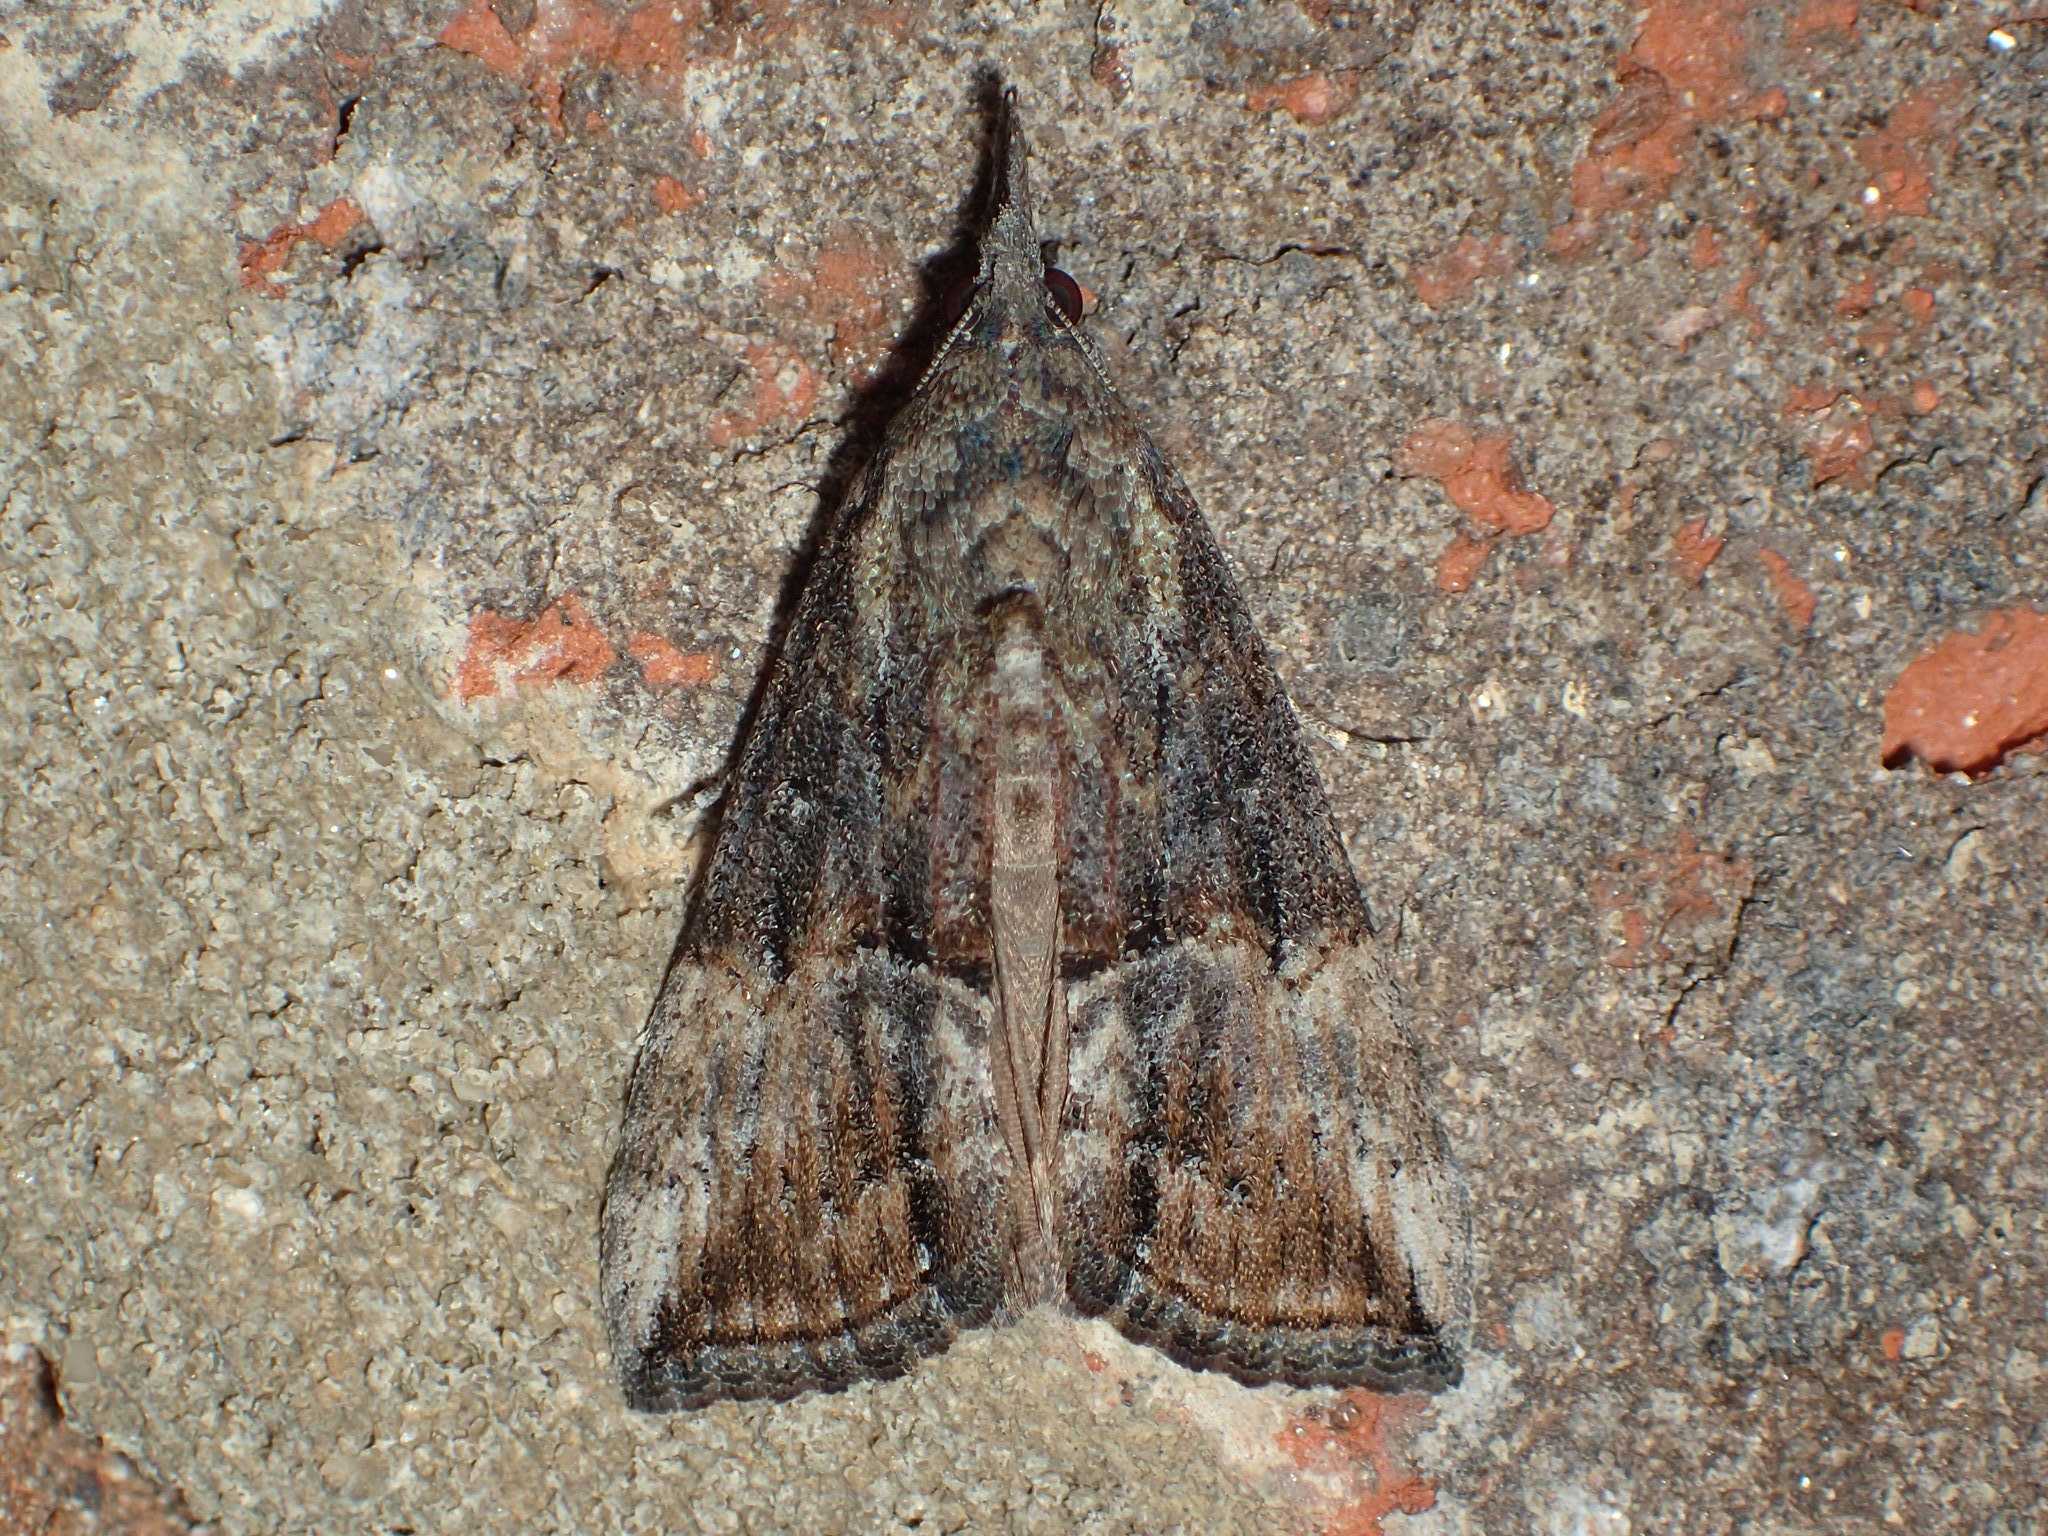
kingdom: Animalia
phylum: Arthropoda
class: Insecta
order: Lepidoptera
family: Erebidae
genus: Hypena
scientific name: Hypena scabra
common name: Green cloverworm
